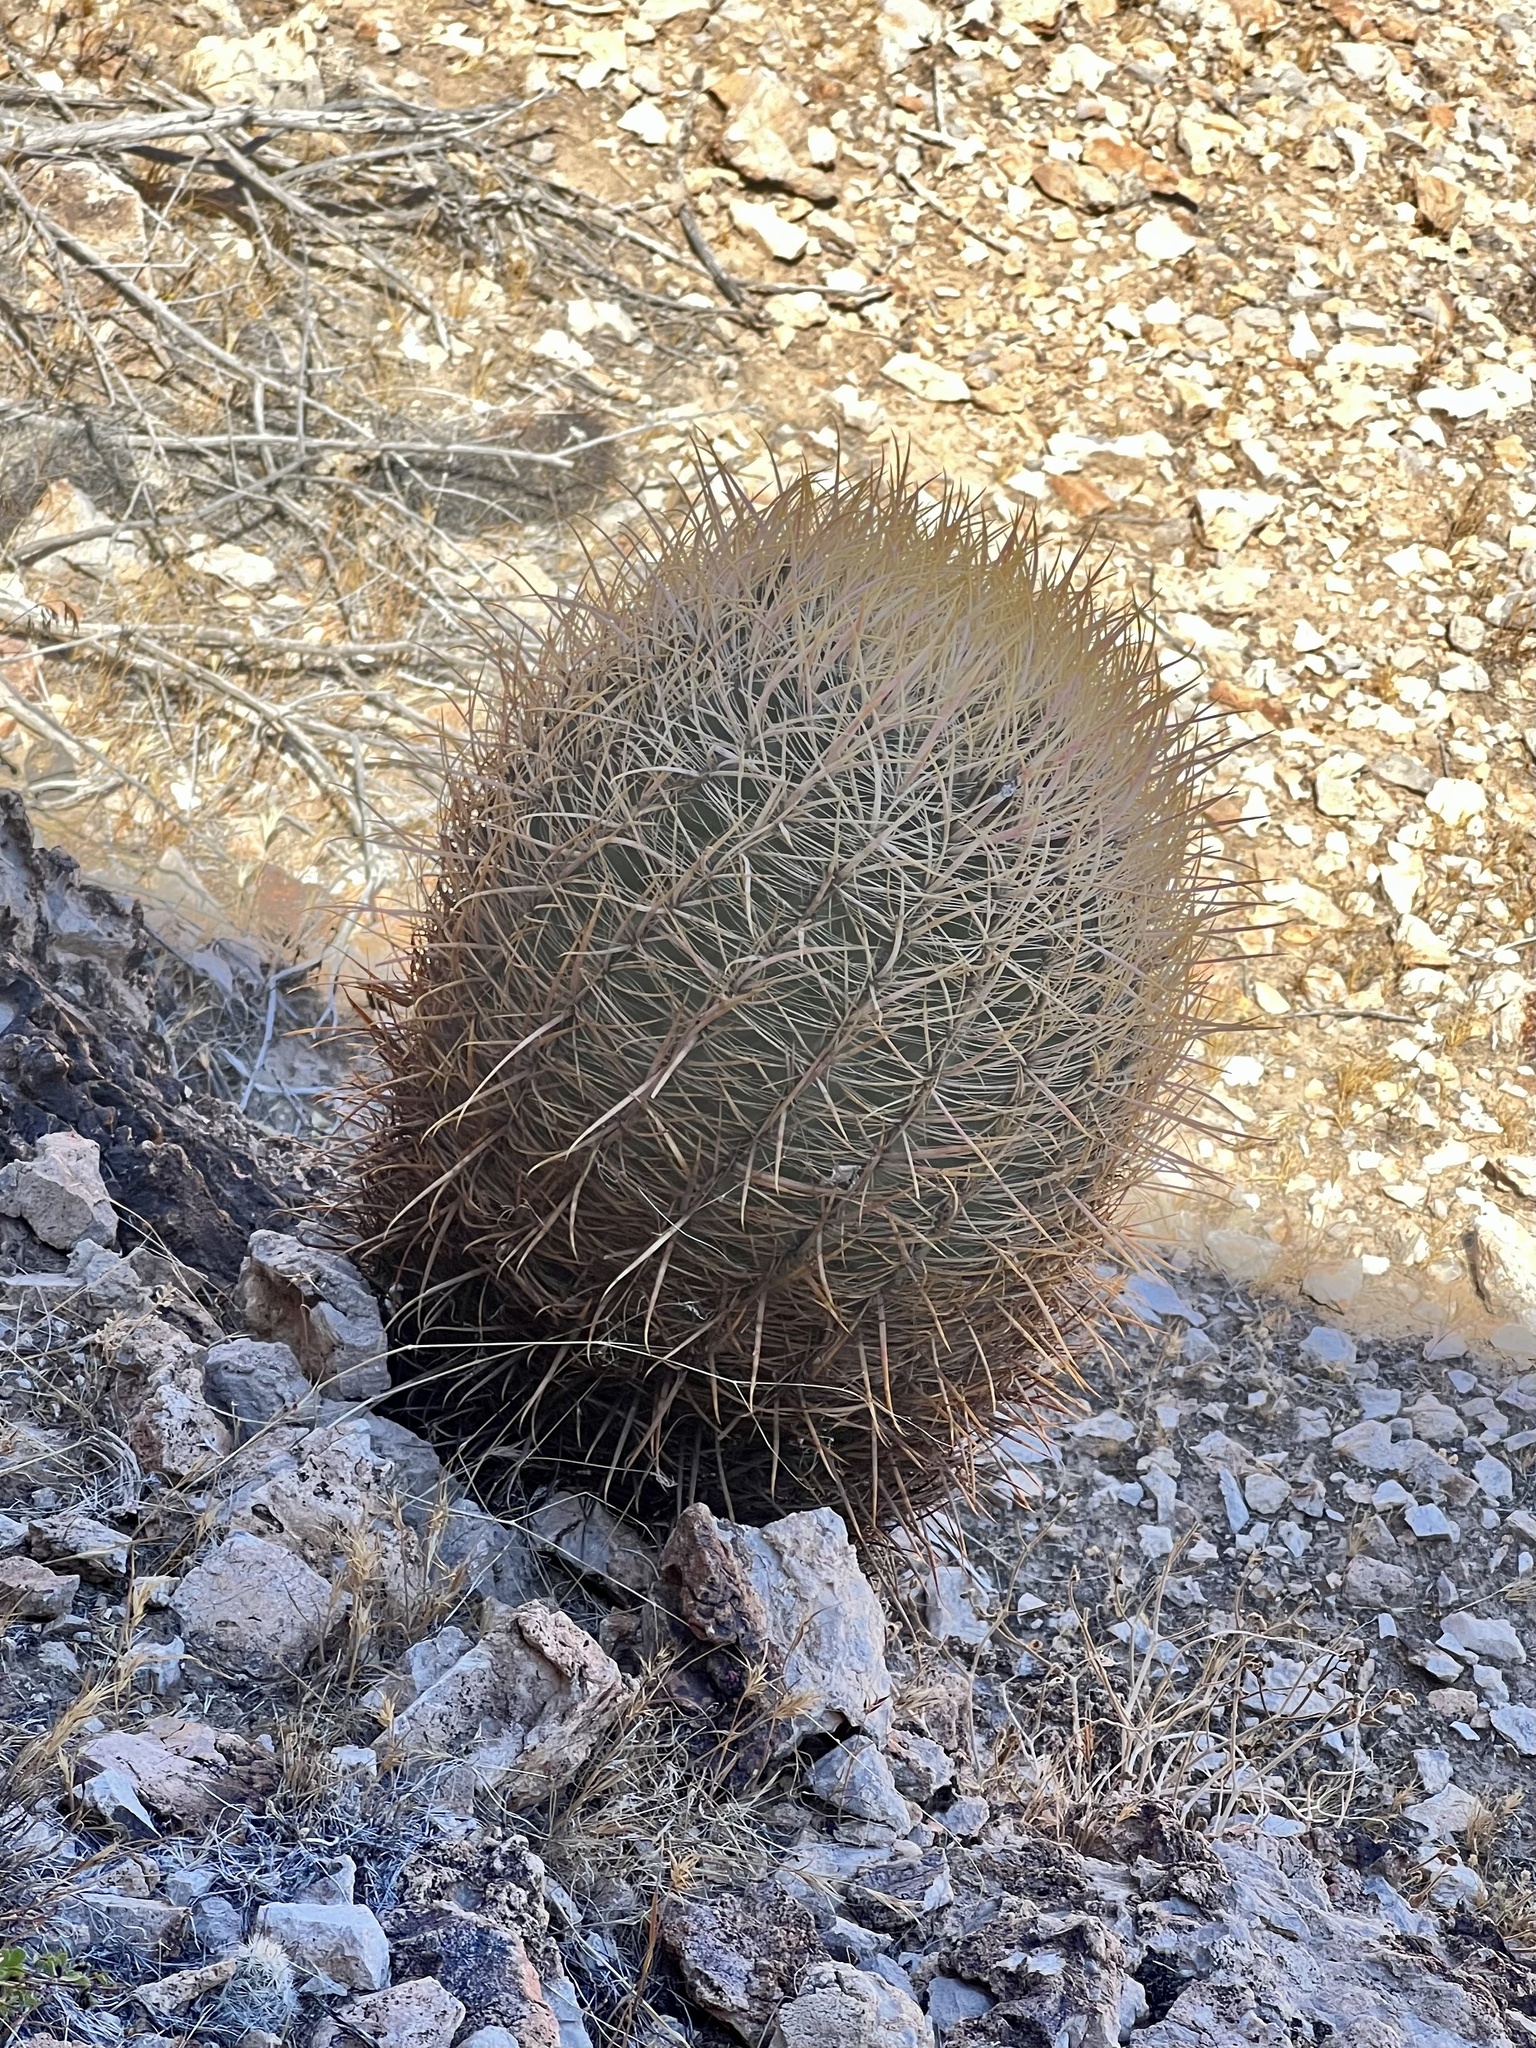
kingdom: Plantae
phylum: Tracheophyta
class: Magnoliopsida
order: Caryophyllales
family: Cactaceae
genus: Ferocactus
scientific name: Ferocactus cylindraceus
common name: California barrel cactus
